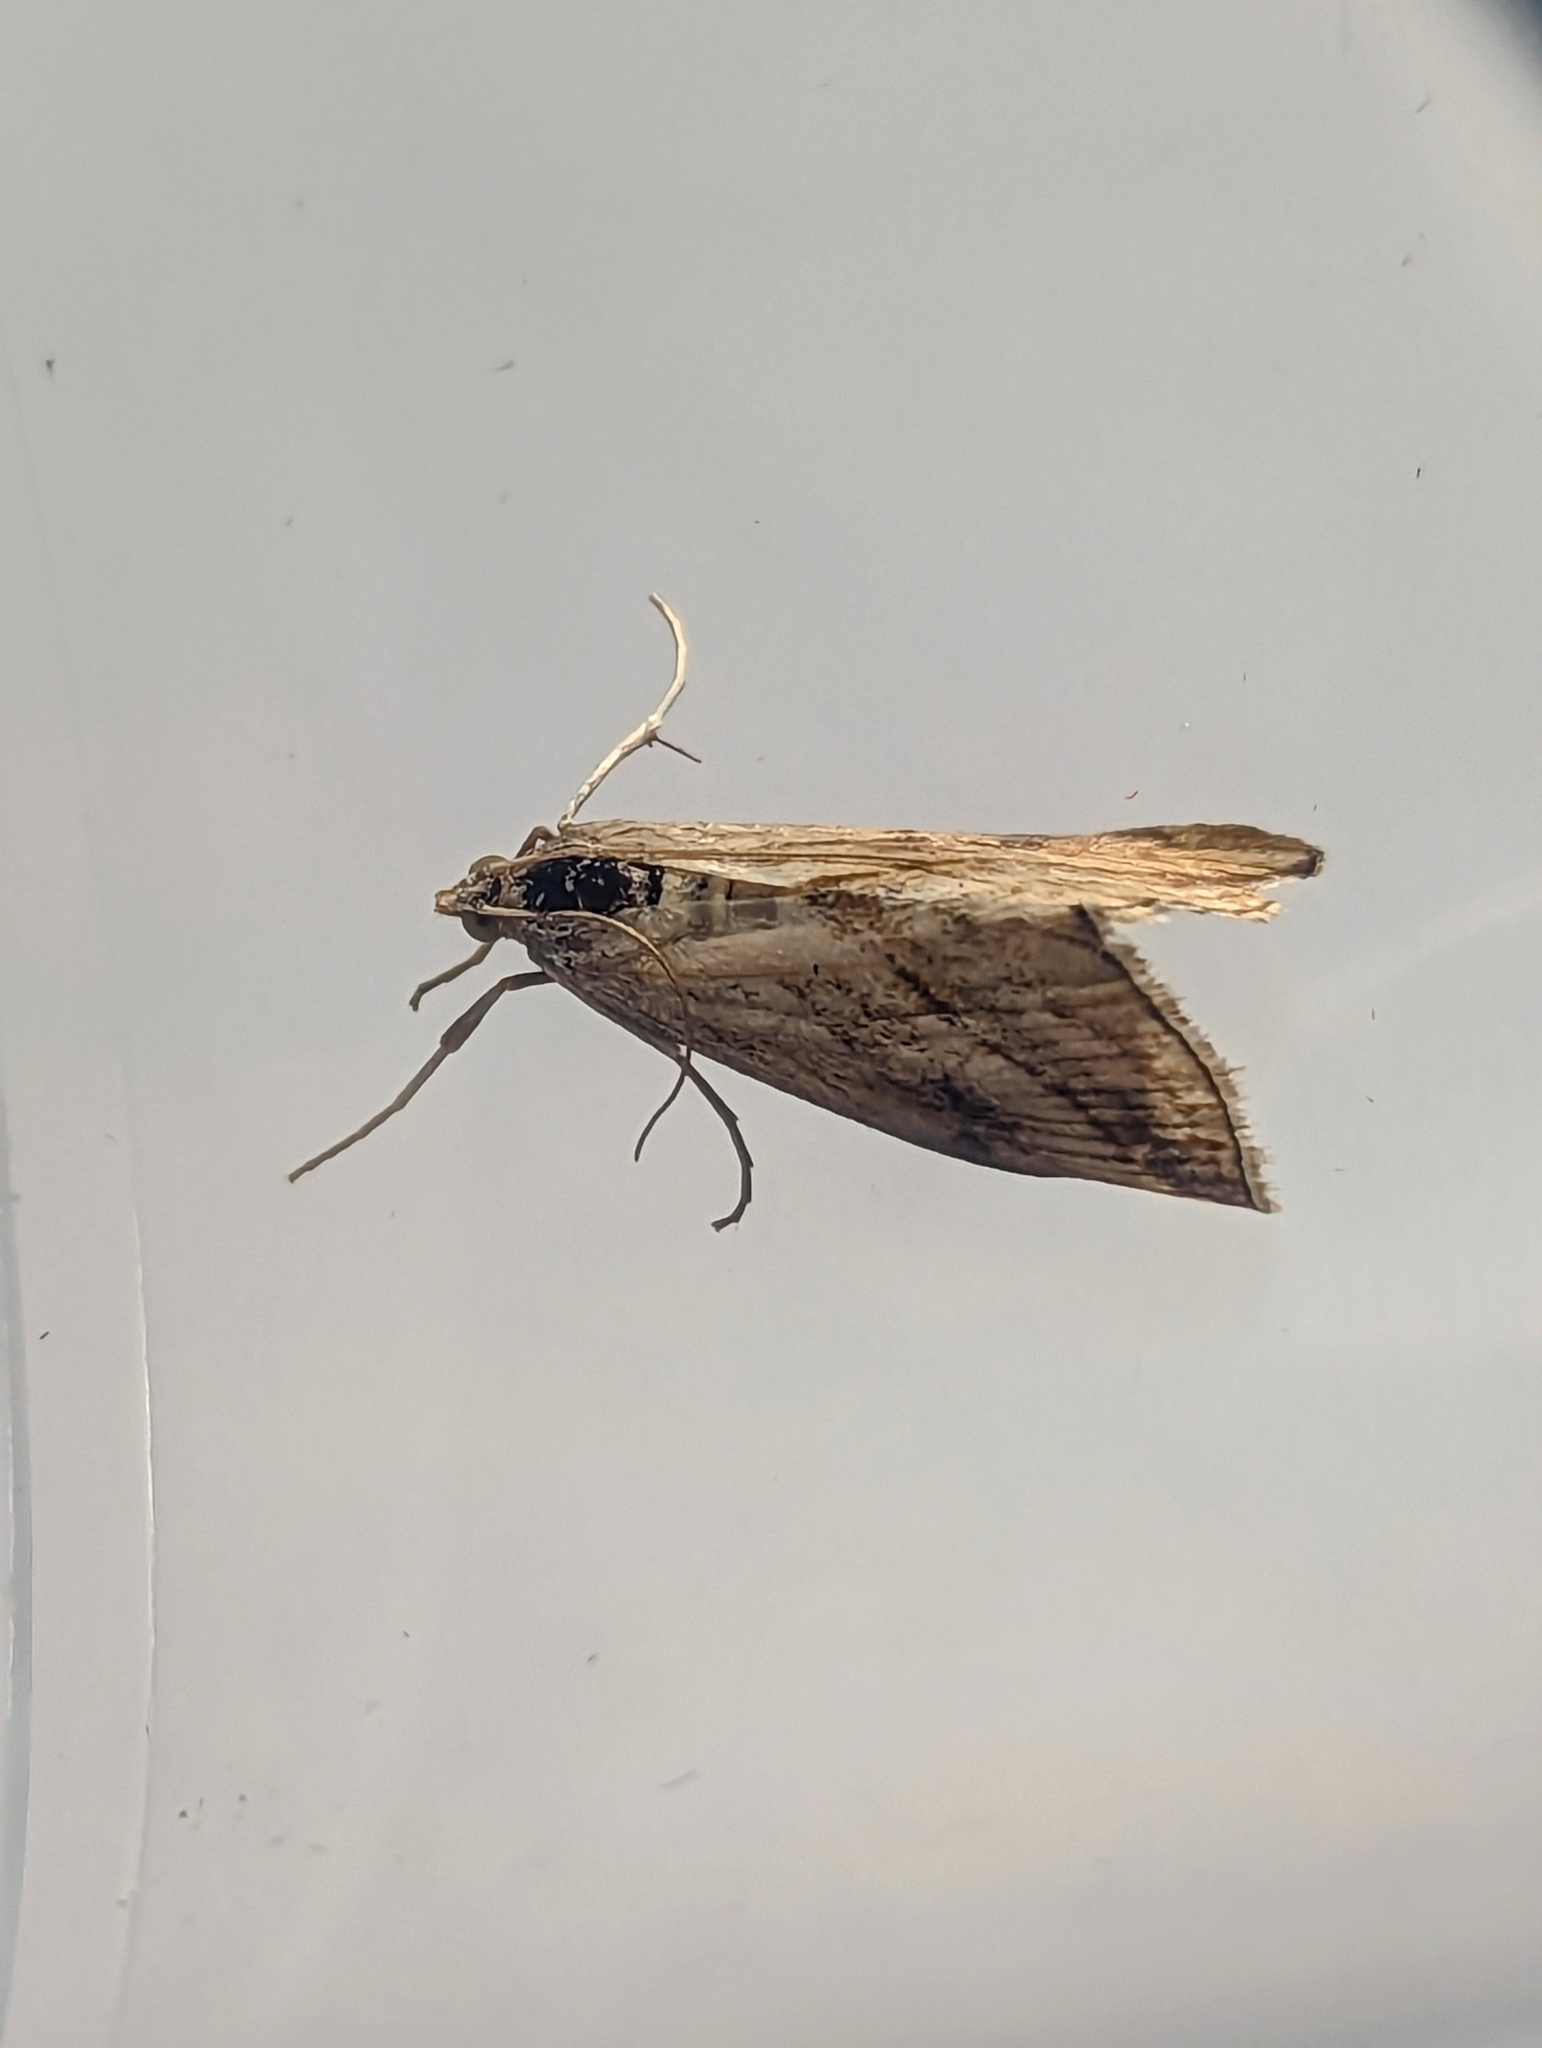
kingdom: Animalia
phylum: Arthropoda
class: Insecta
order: Lepidoptera
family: Crambidae
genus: Evergestis
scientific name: Evergestis forficalis
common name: Garden pebble
